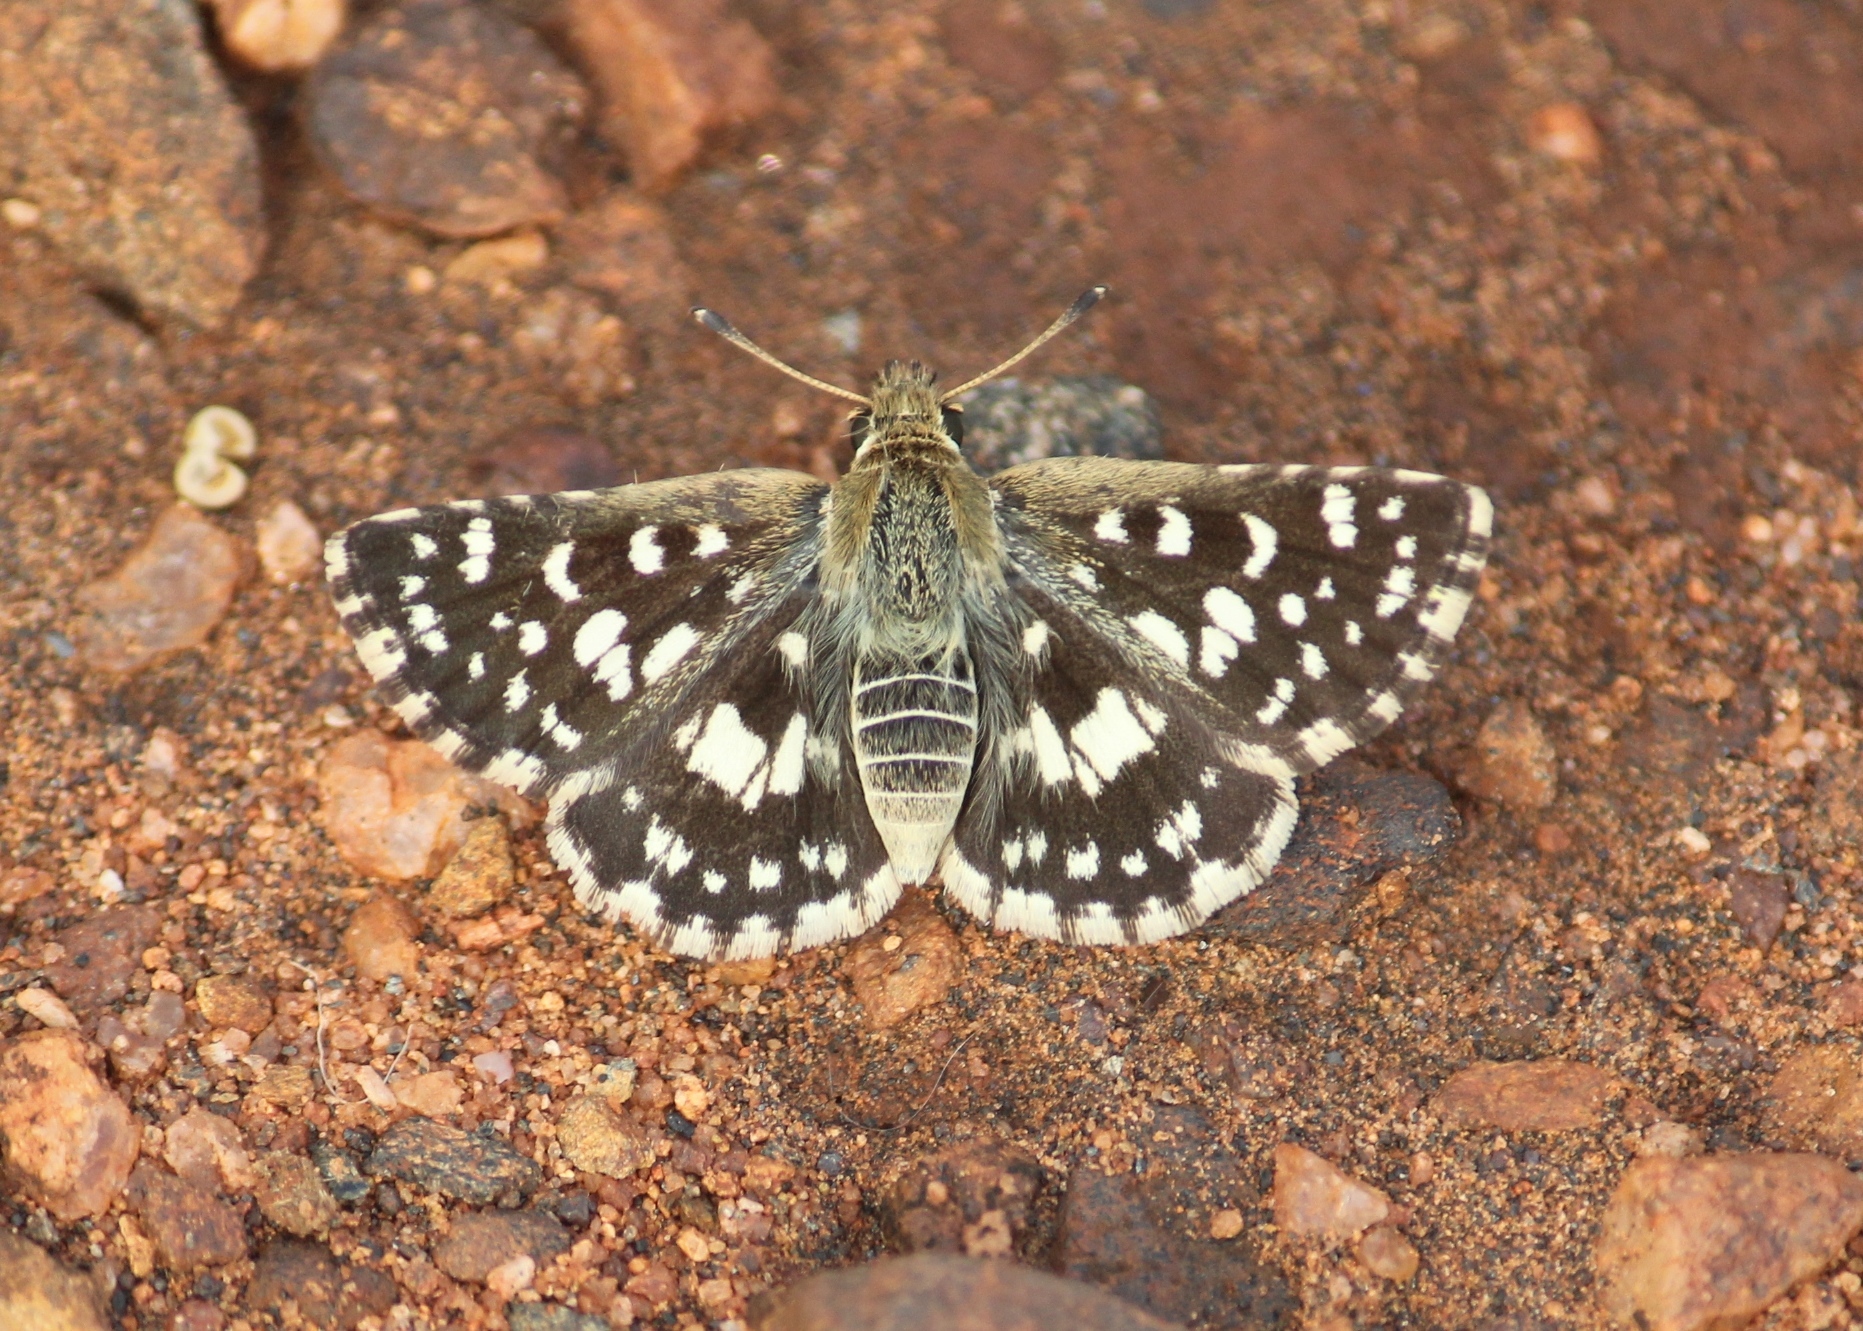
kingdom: Animalia
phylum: Arthropoda
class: Insecta
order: Lepidoptera
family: Hesperiidae
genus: Spialia
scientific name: Spialia galba
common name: Indian skipper
